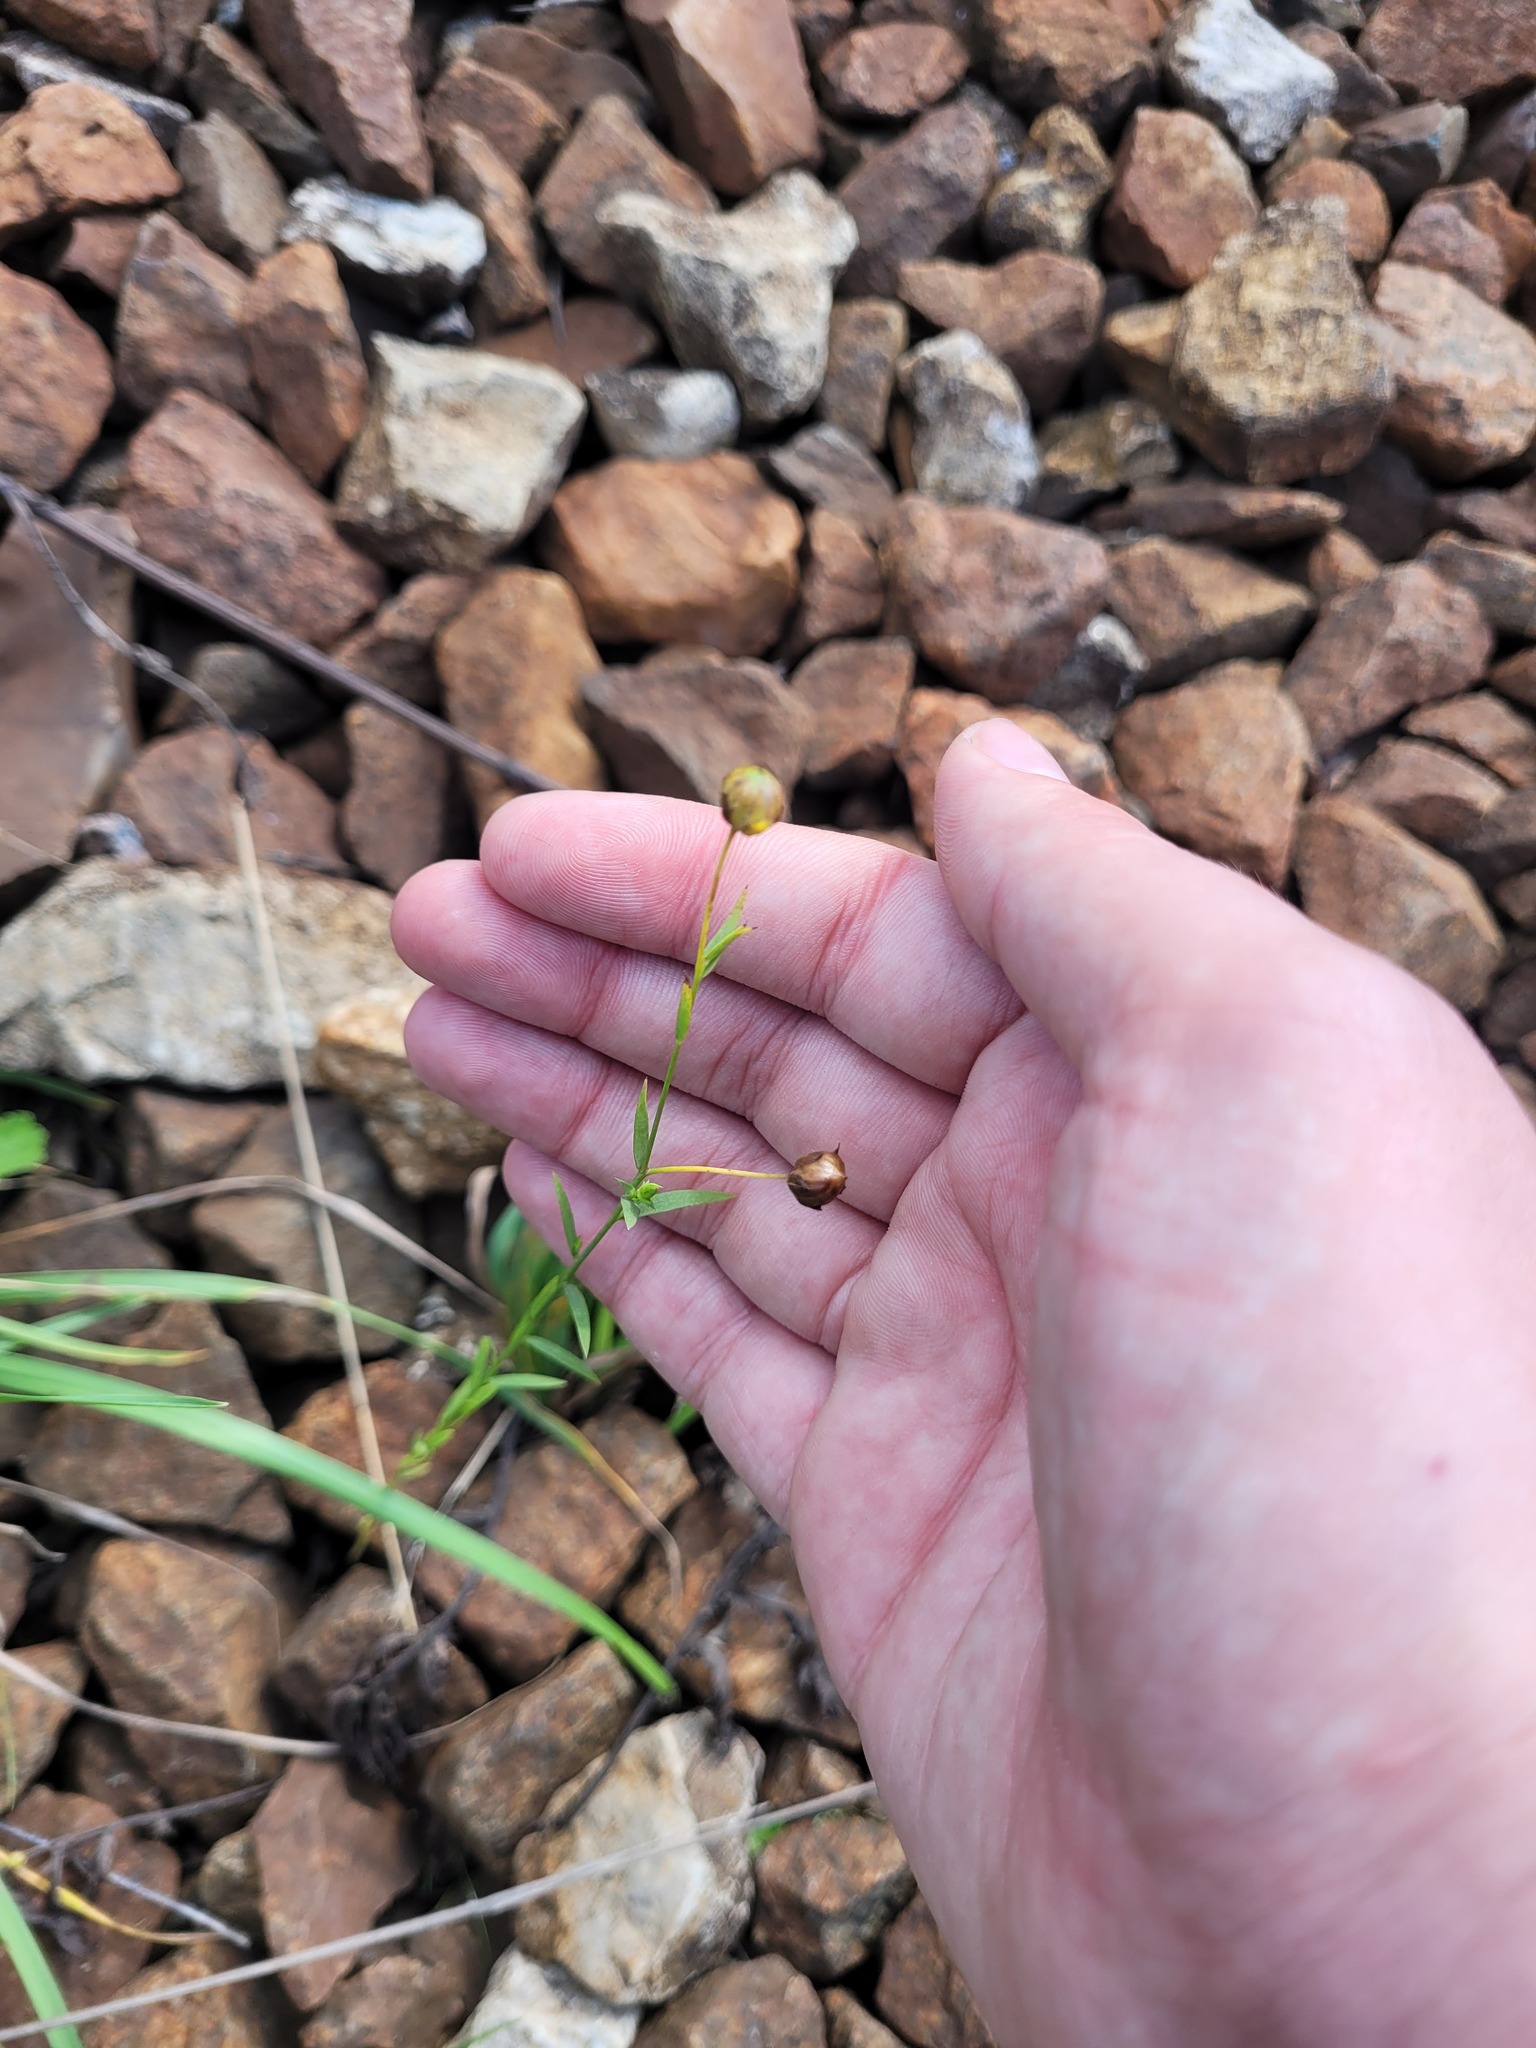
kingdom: Plantae
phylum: Tracheophyta
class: Magnoliopsida
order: Malpighiales
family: Linaceae
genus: Linum
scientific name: Linum usitatissimum
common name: Flax
